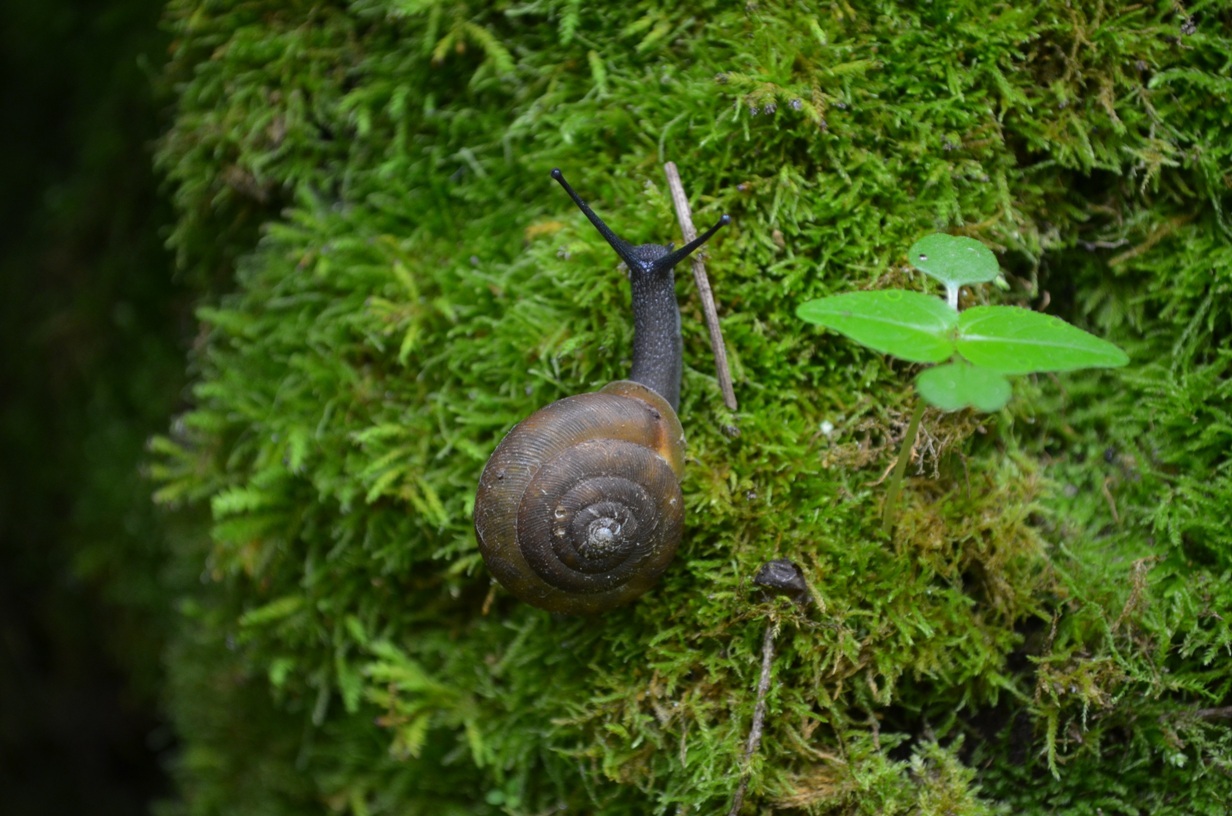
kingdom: Animalia
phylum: Mollusca
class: Gastropoda
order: Stylommatophora
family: Polygyridae
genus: Patera
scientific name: Patera perigrapta
